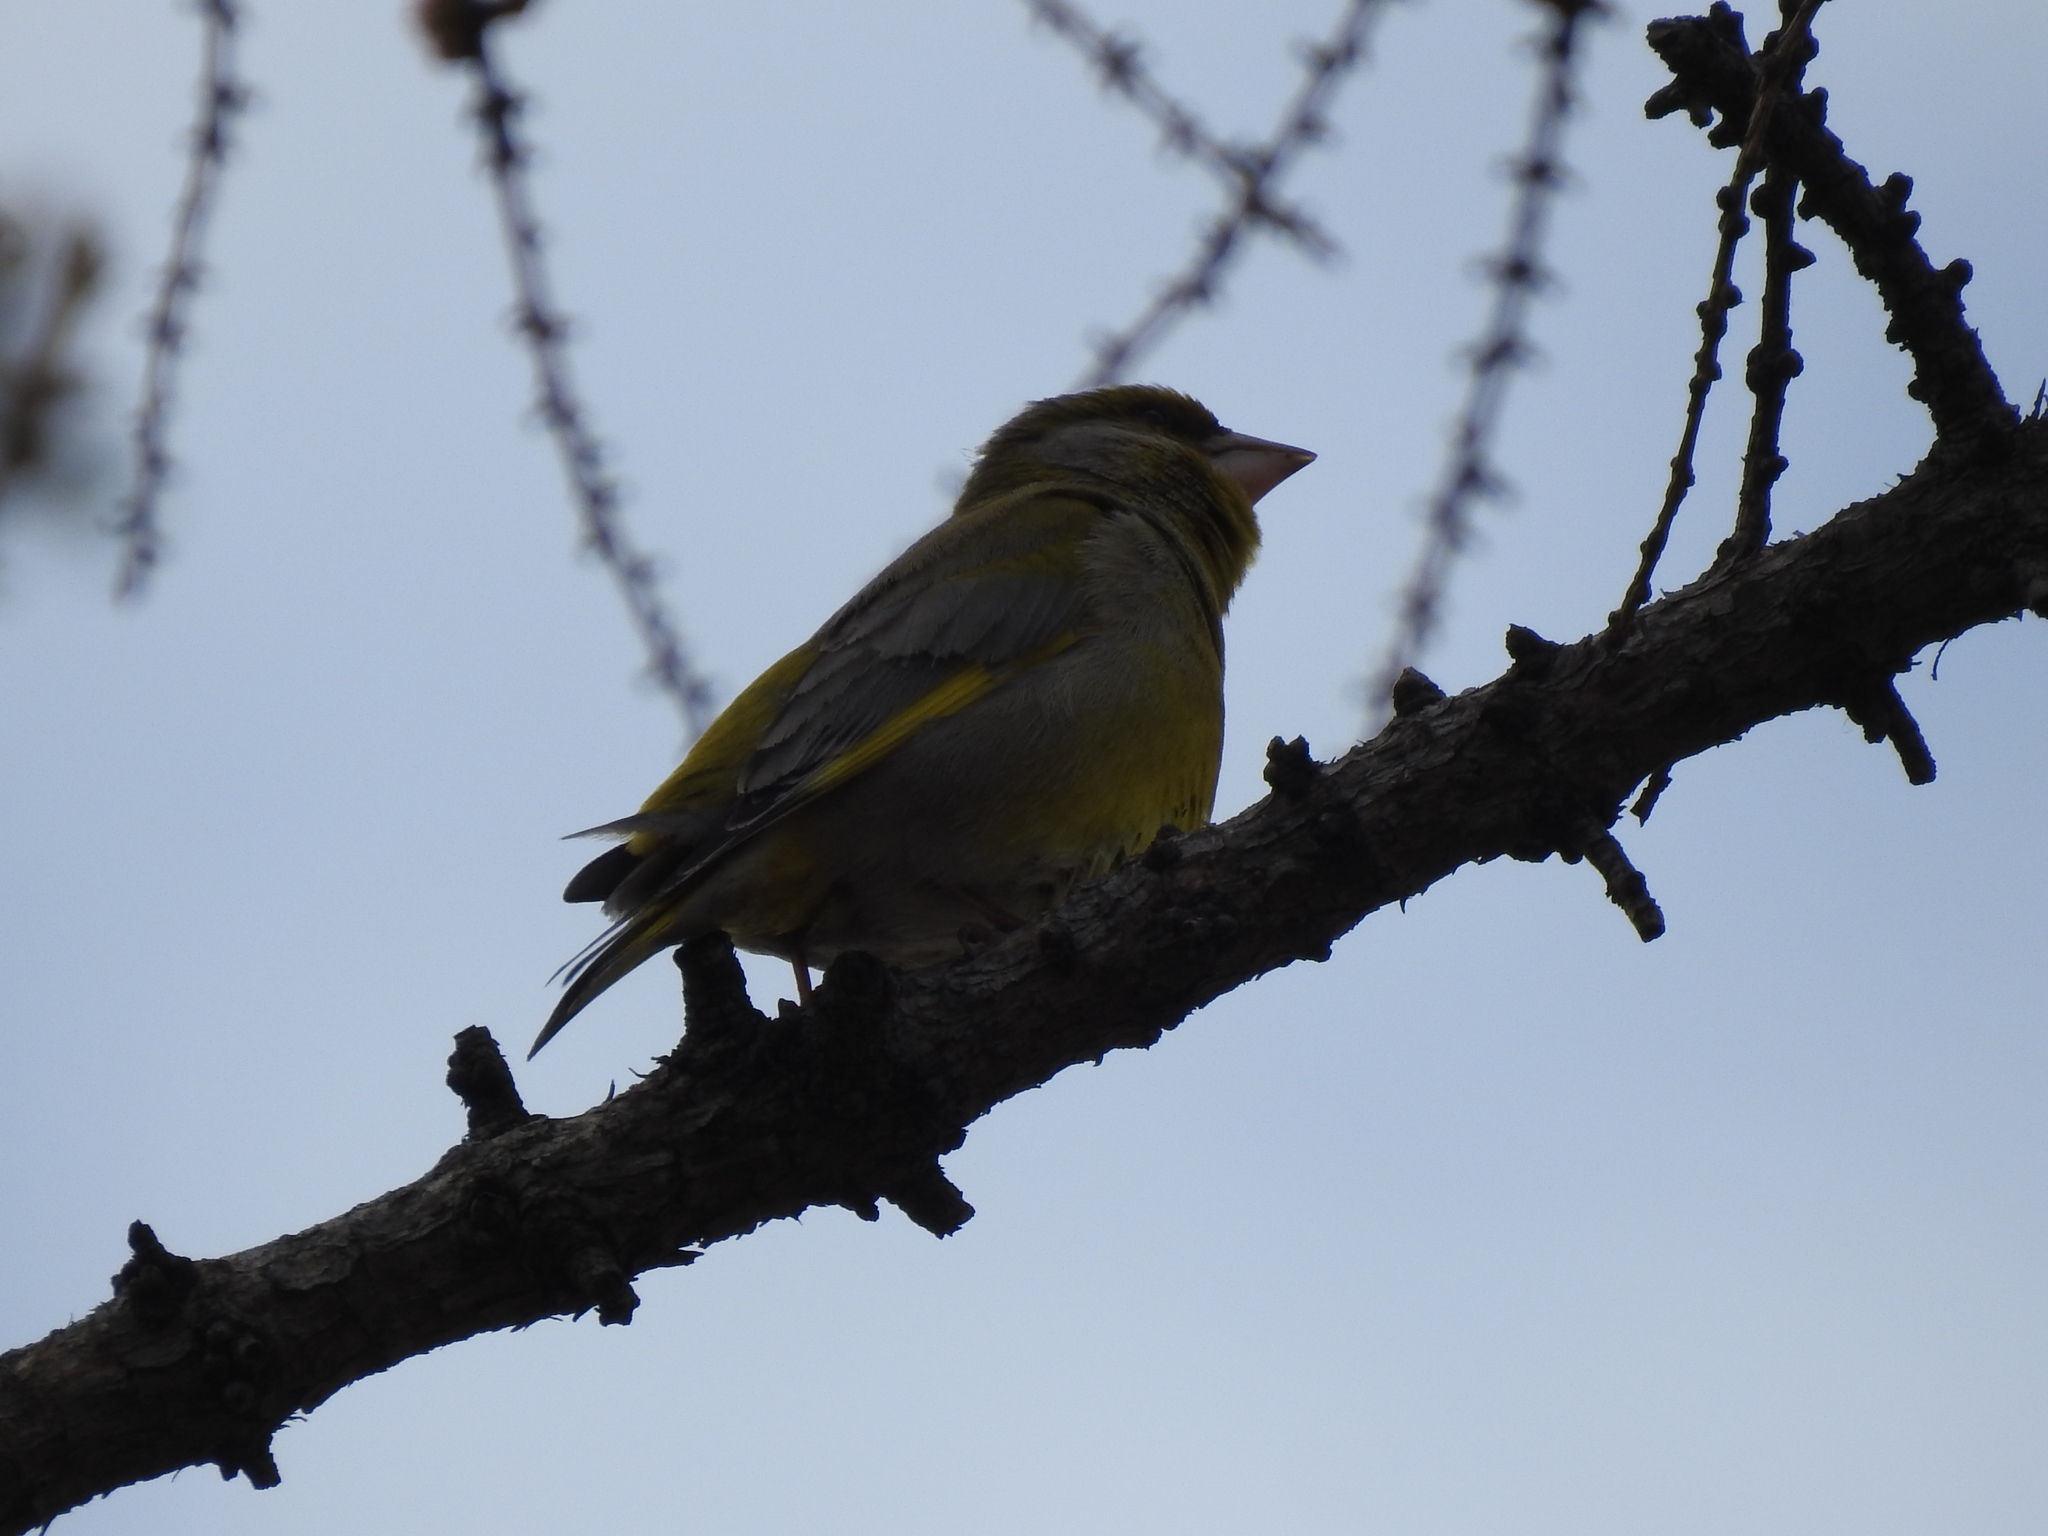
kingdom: Plantae
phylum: Tracheophyta
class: Liliopsida
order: Poales
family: Poaceae
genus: Chloris
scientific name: Chloris chloris
